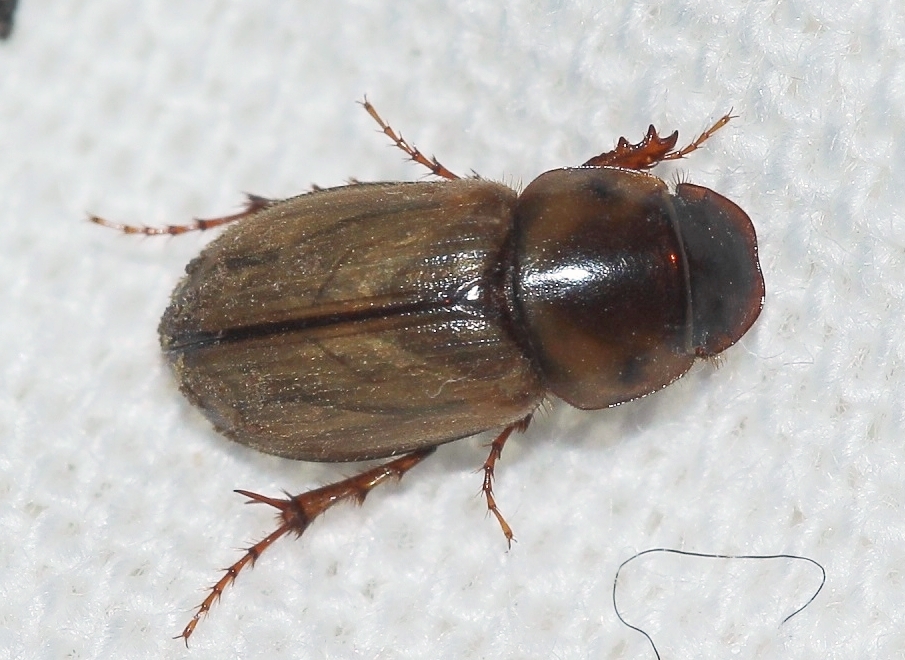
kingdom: Animalia
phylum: Arthropoda
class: Insecta
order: Coleoptera
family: Scarabaeidae
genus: Bodilus
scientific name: Bodilus gregarius
